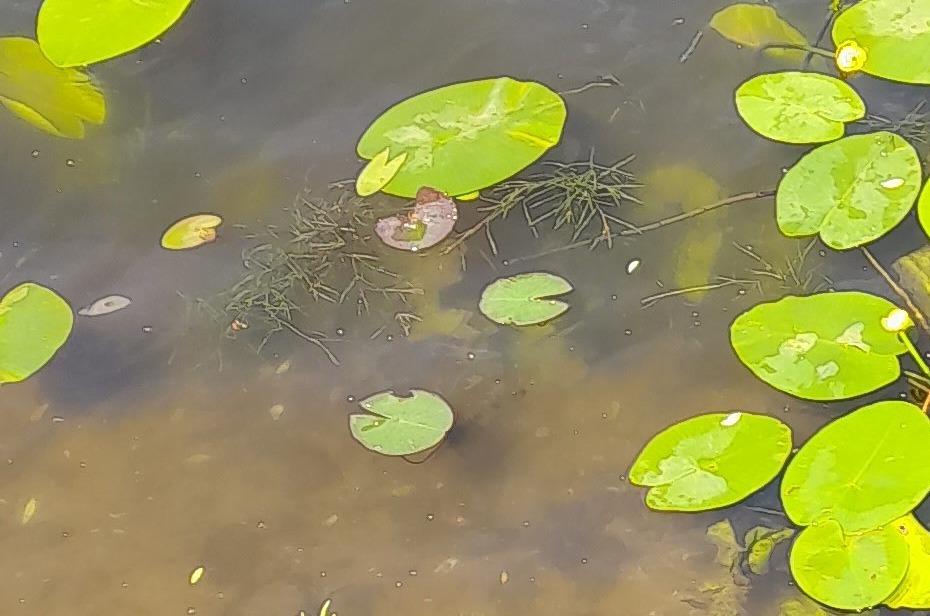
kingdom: Plantae
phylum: Tracheophyta
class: Liliopsida
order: Alismatales
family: Potamogetonaceae
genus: Stuckenia
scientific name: Stuckenia pectinata
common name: Sago pondweed
